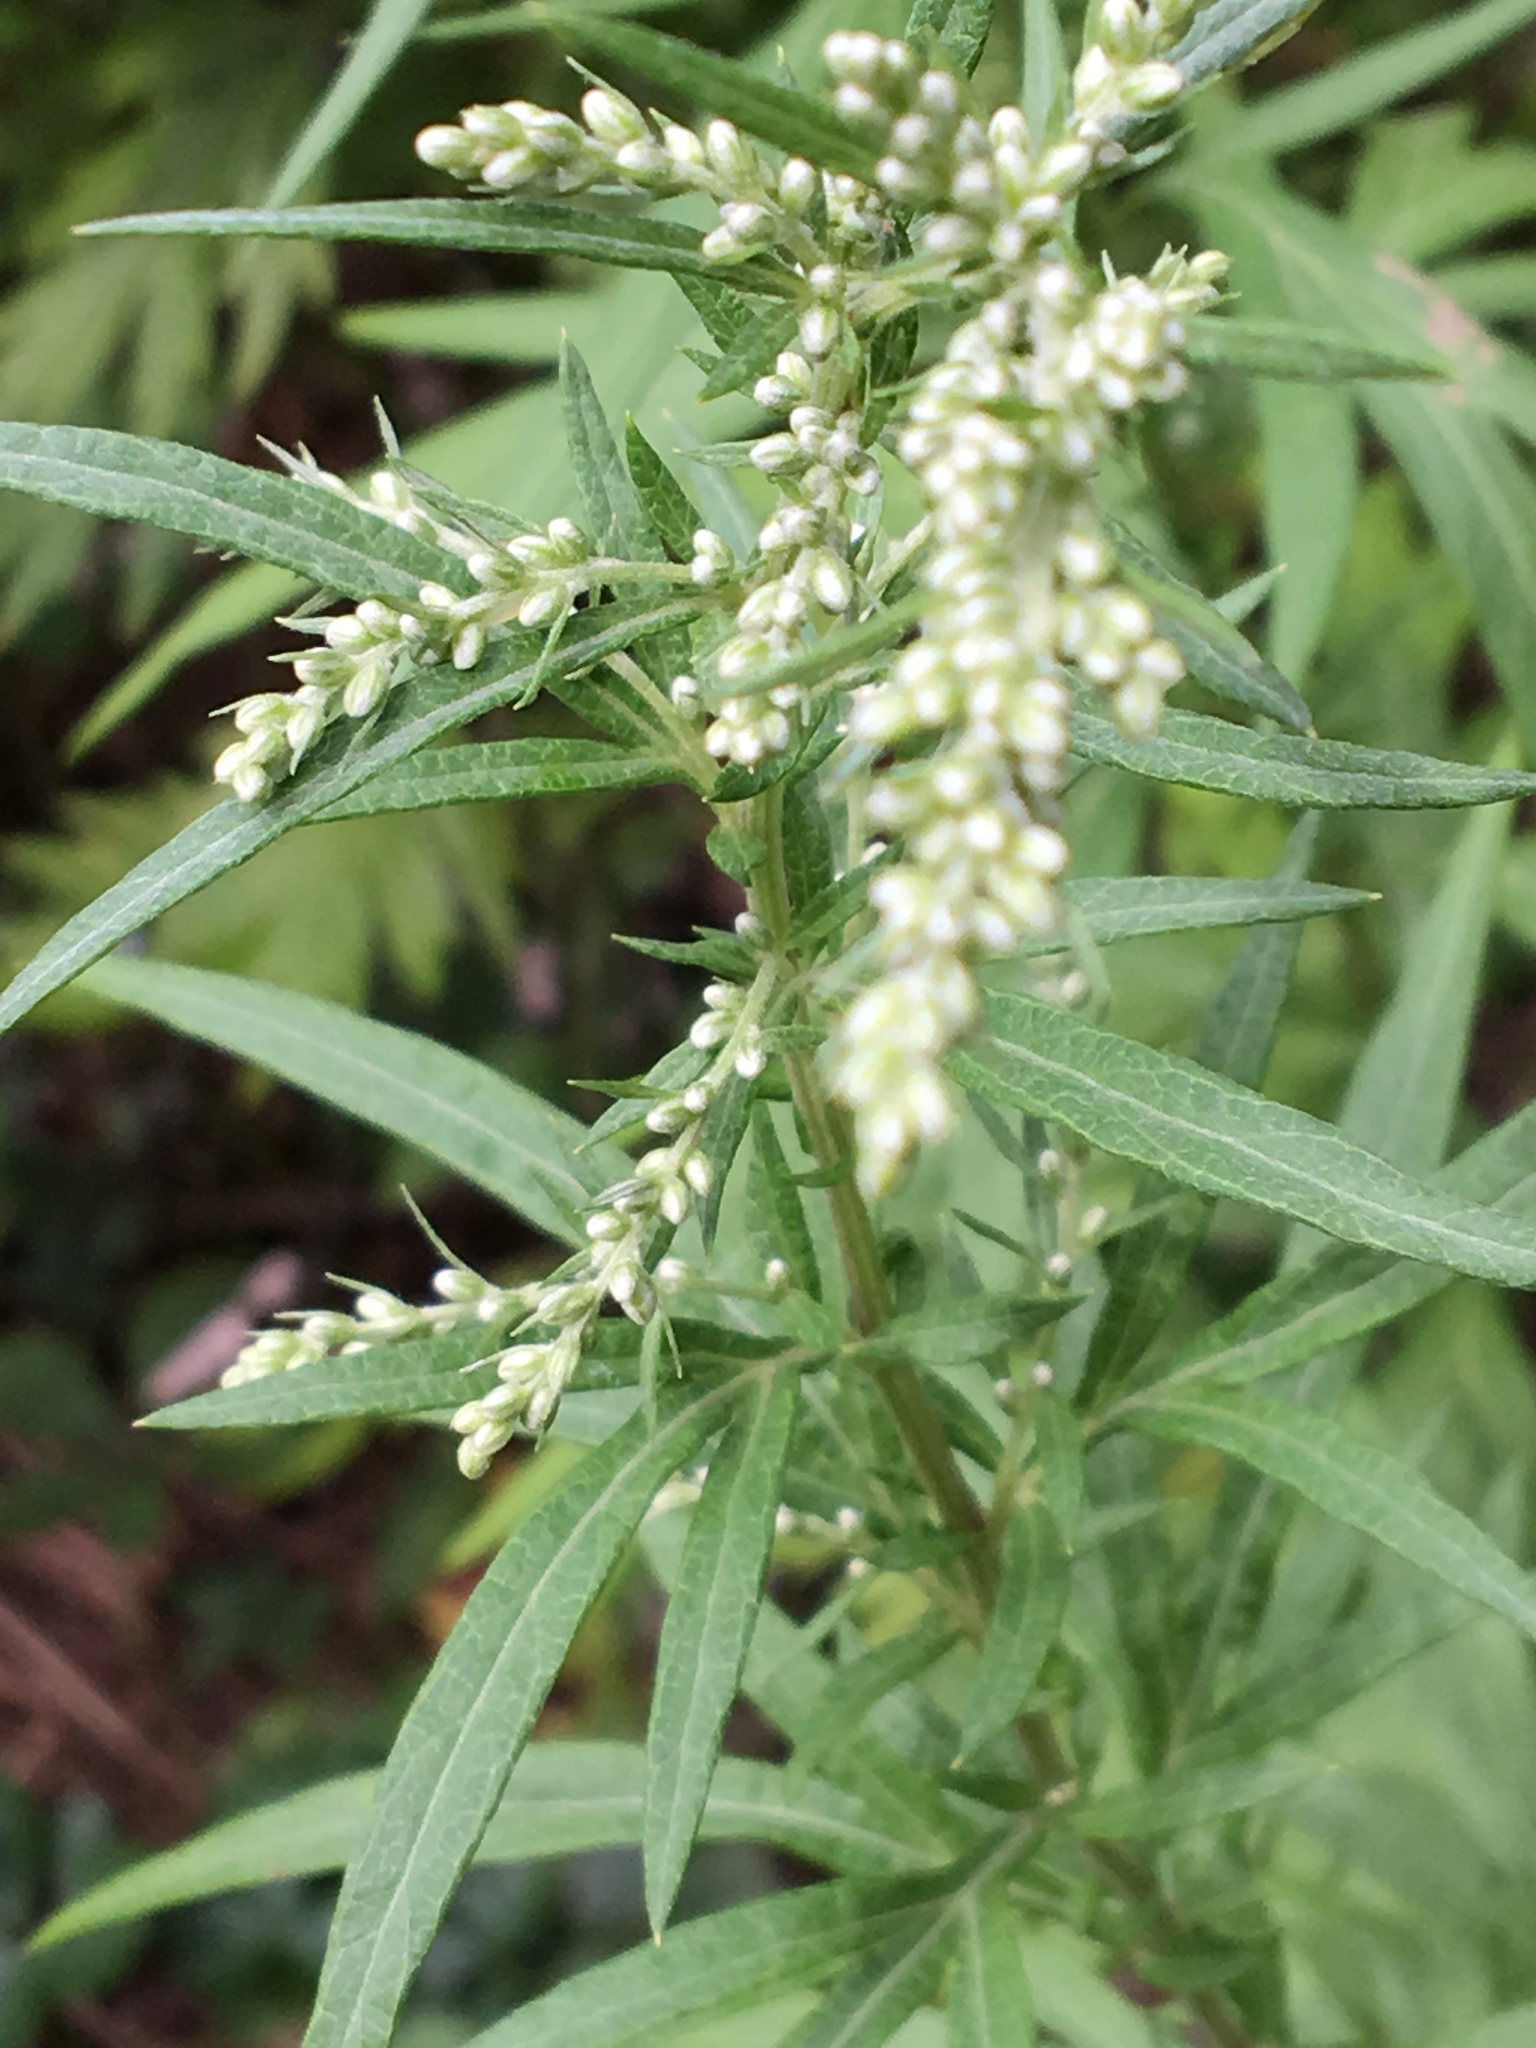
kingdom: Plantae
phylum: Tracheophyta
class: Magnoliopsida
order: Asterales
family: Asteraceae
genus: Artemisia
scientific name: Artemisia vulgaris
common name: Mugwort
